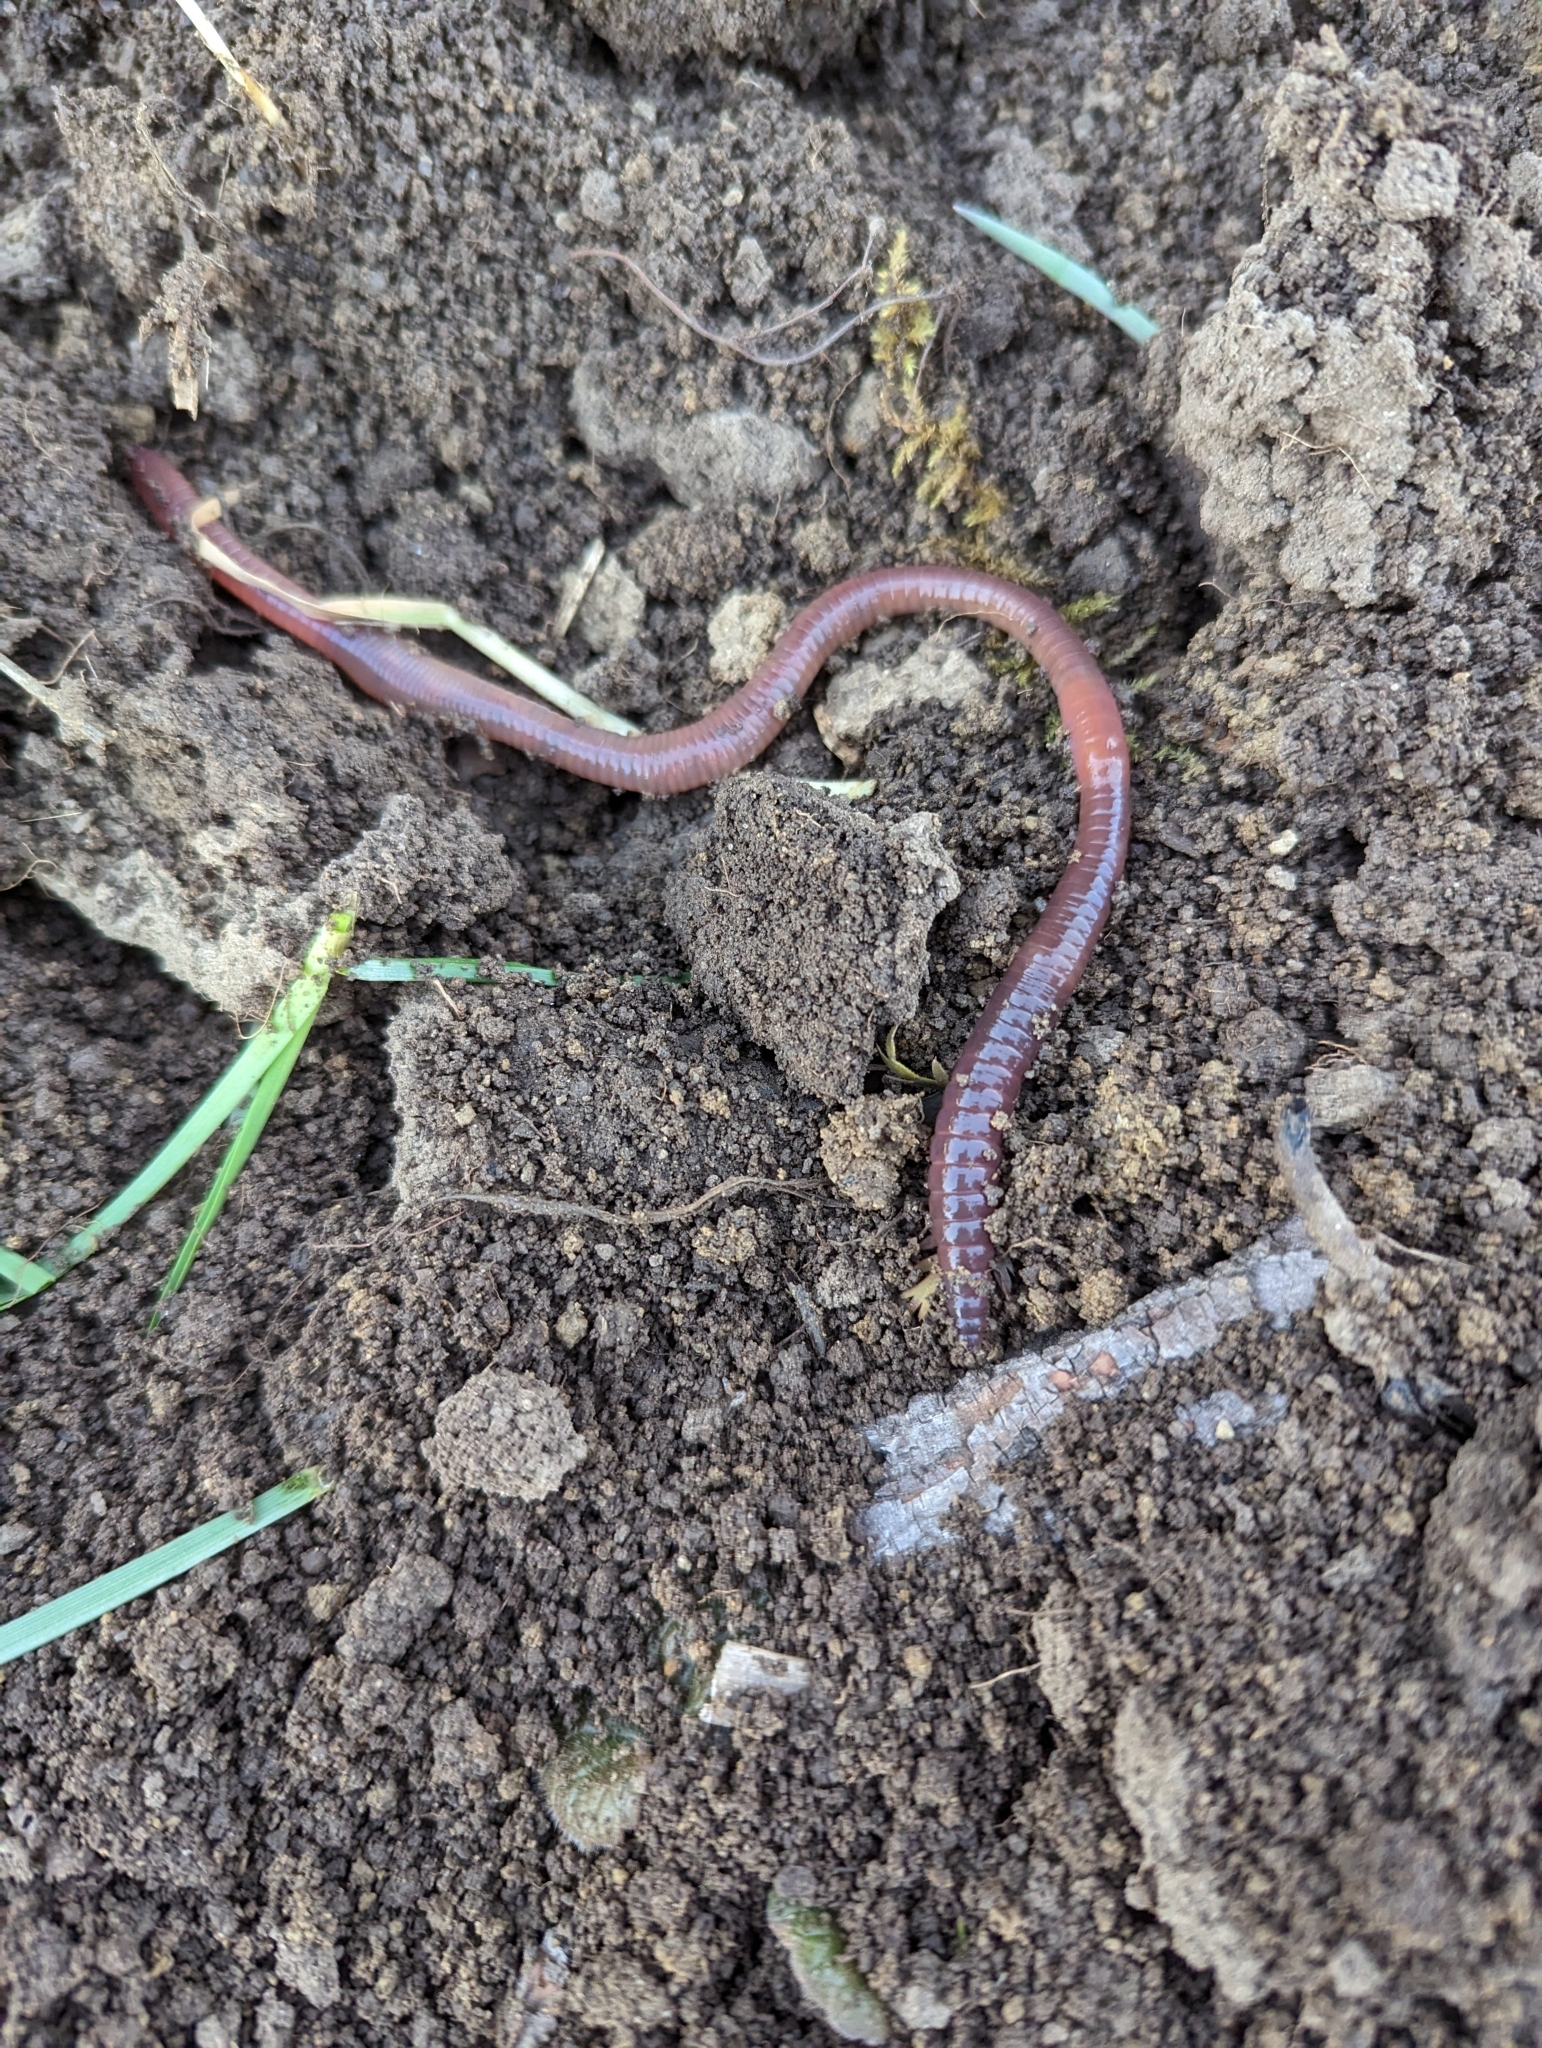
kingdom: Animalia
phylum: Annelida
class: Clitellata
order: Crassiclitellata
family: Lumbricidae
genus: Lumbricus
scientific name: Lumbricus terrestris
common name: Common earthworm
